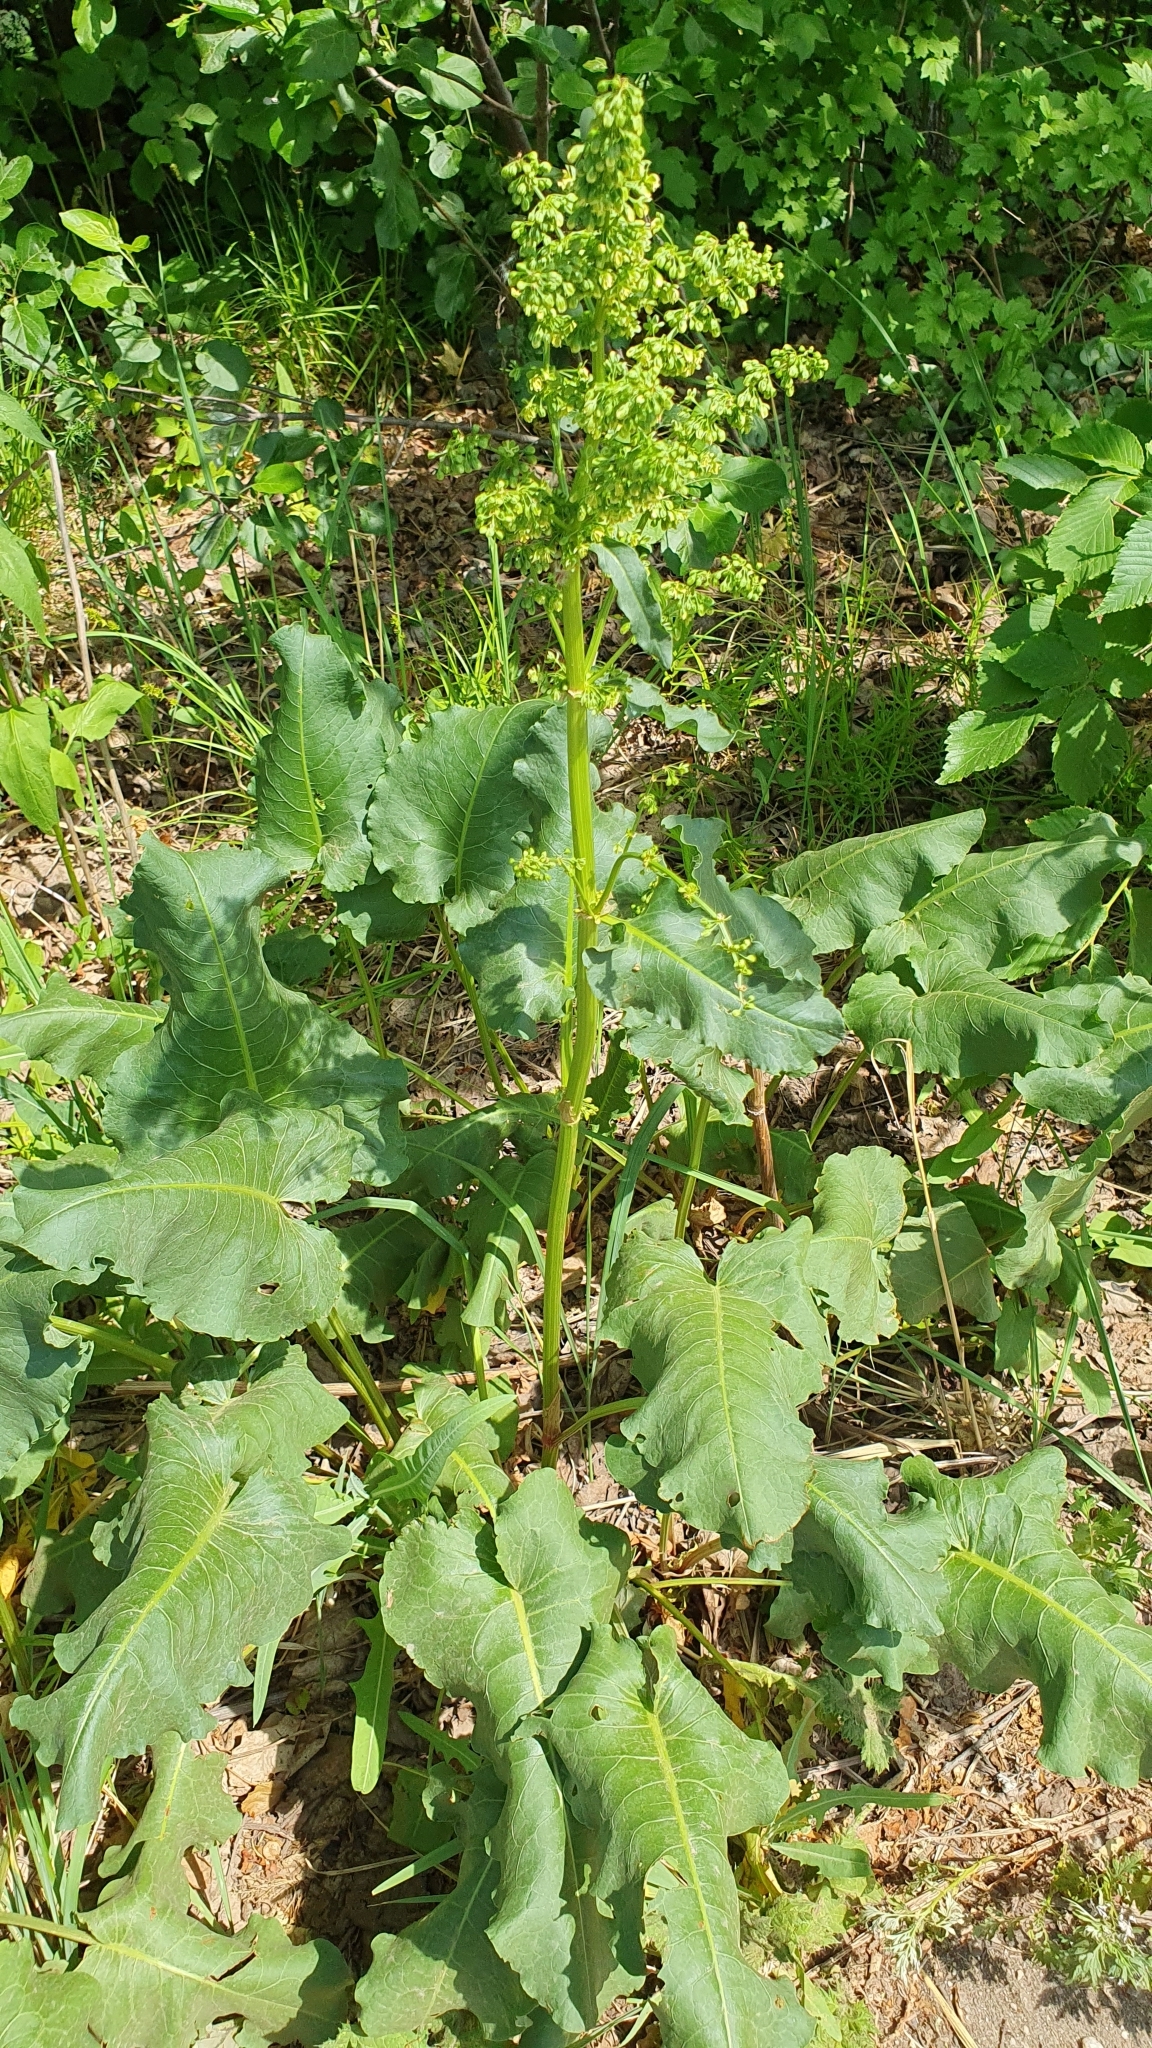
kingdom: Plantae
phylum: Tracheophyta
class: Magnoliopsida
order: Caryophyllales
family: Polygonaceae
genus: Rumex
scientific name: Rumex confertus
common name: Russian dock
